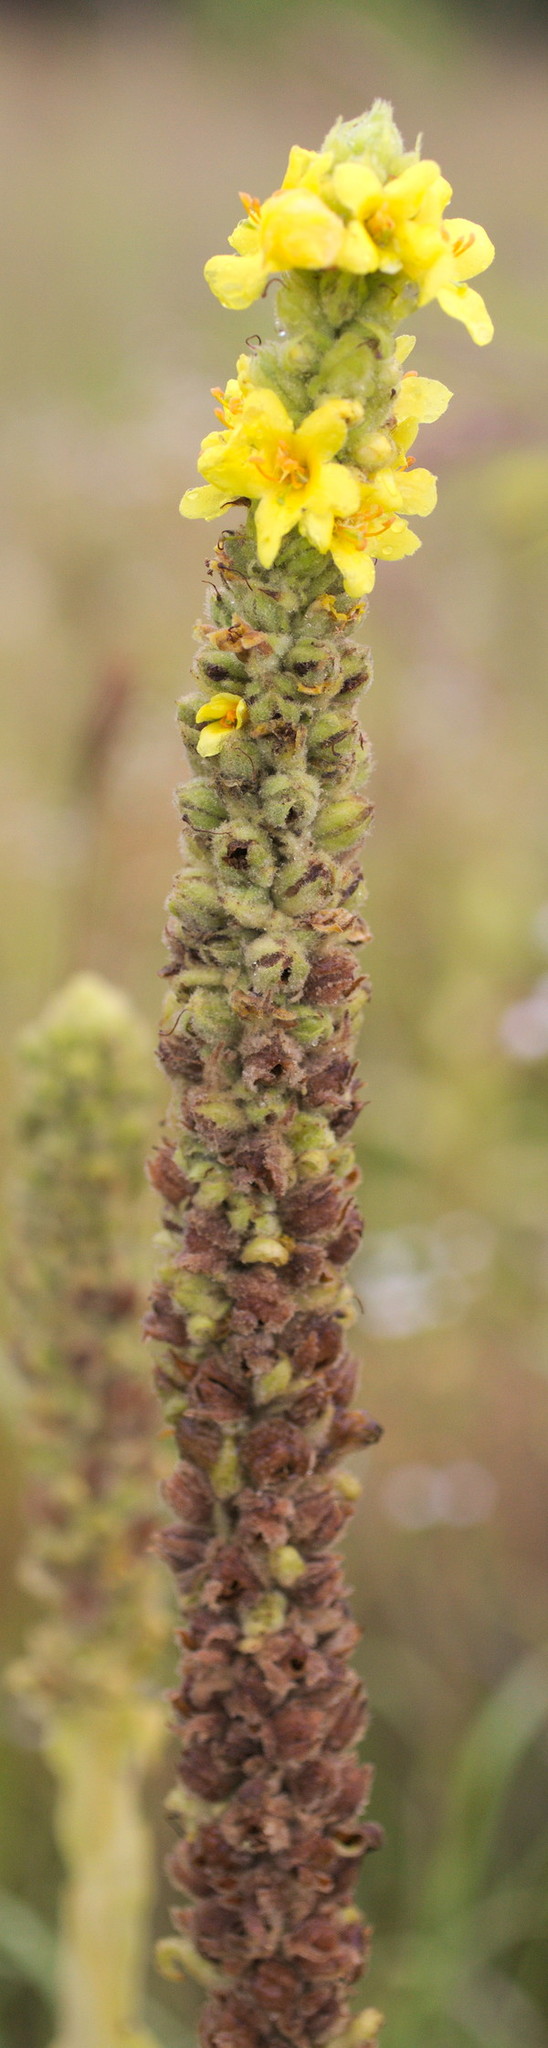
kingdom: Plantae
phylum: Tracheophyta
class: Magnoliopsida
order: Lamiales
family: Scrophulariaceae
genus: Verbascum
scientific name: Verbascum thapsus
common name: Common mullein
